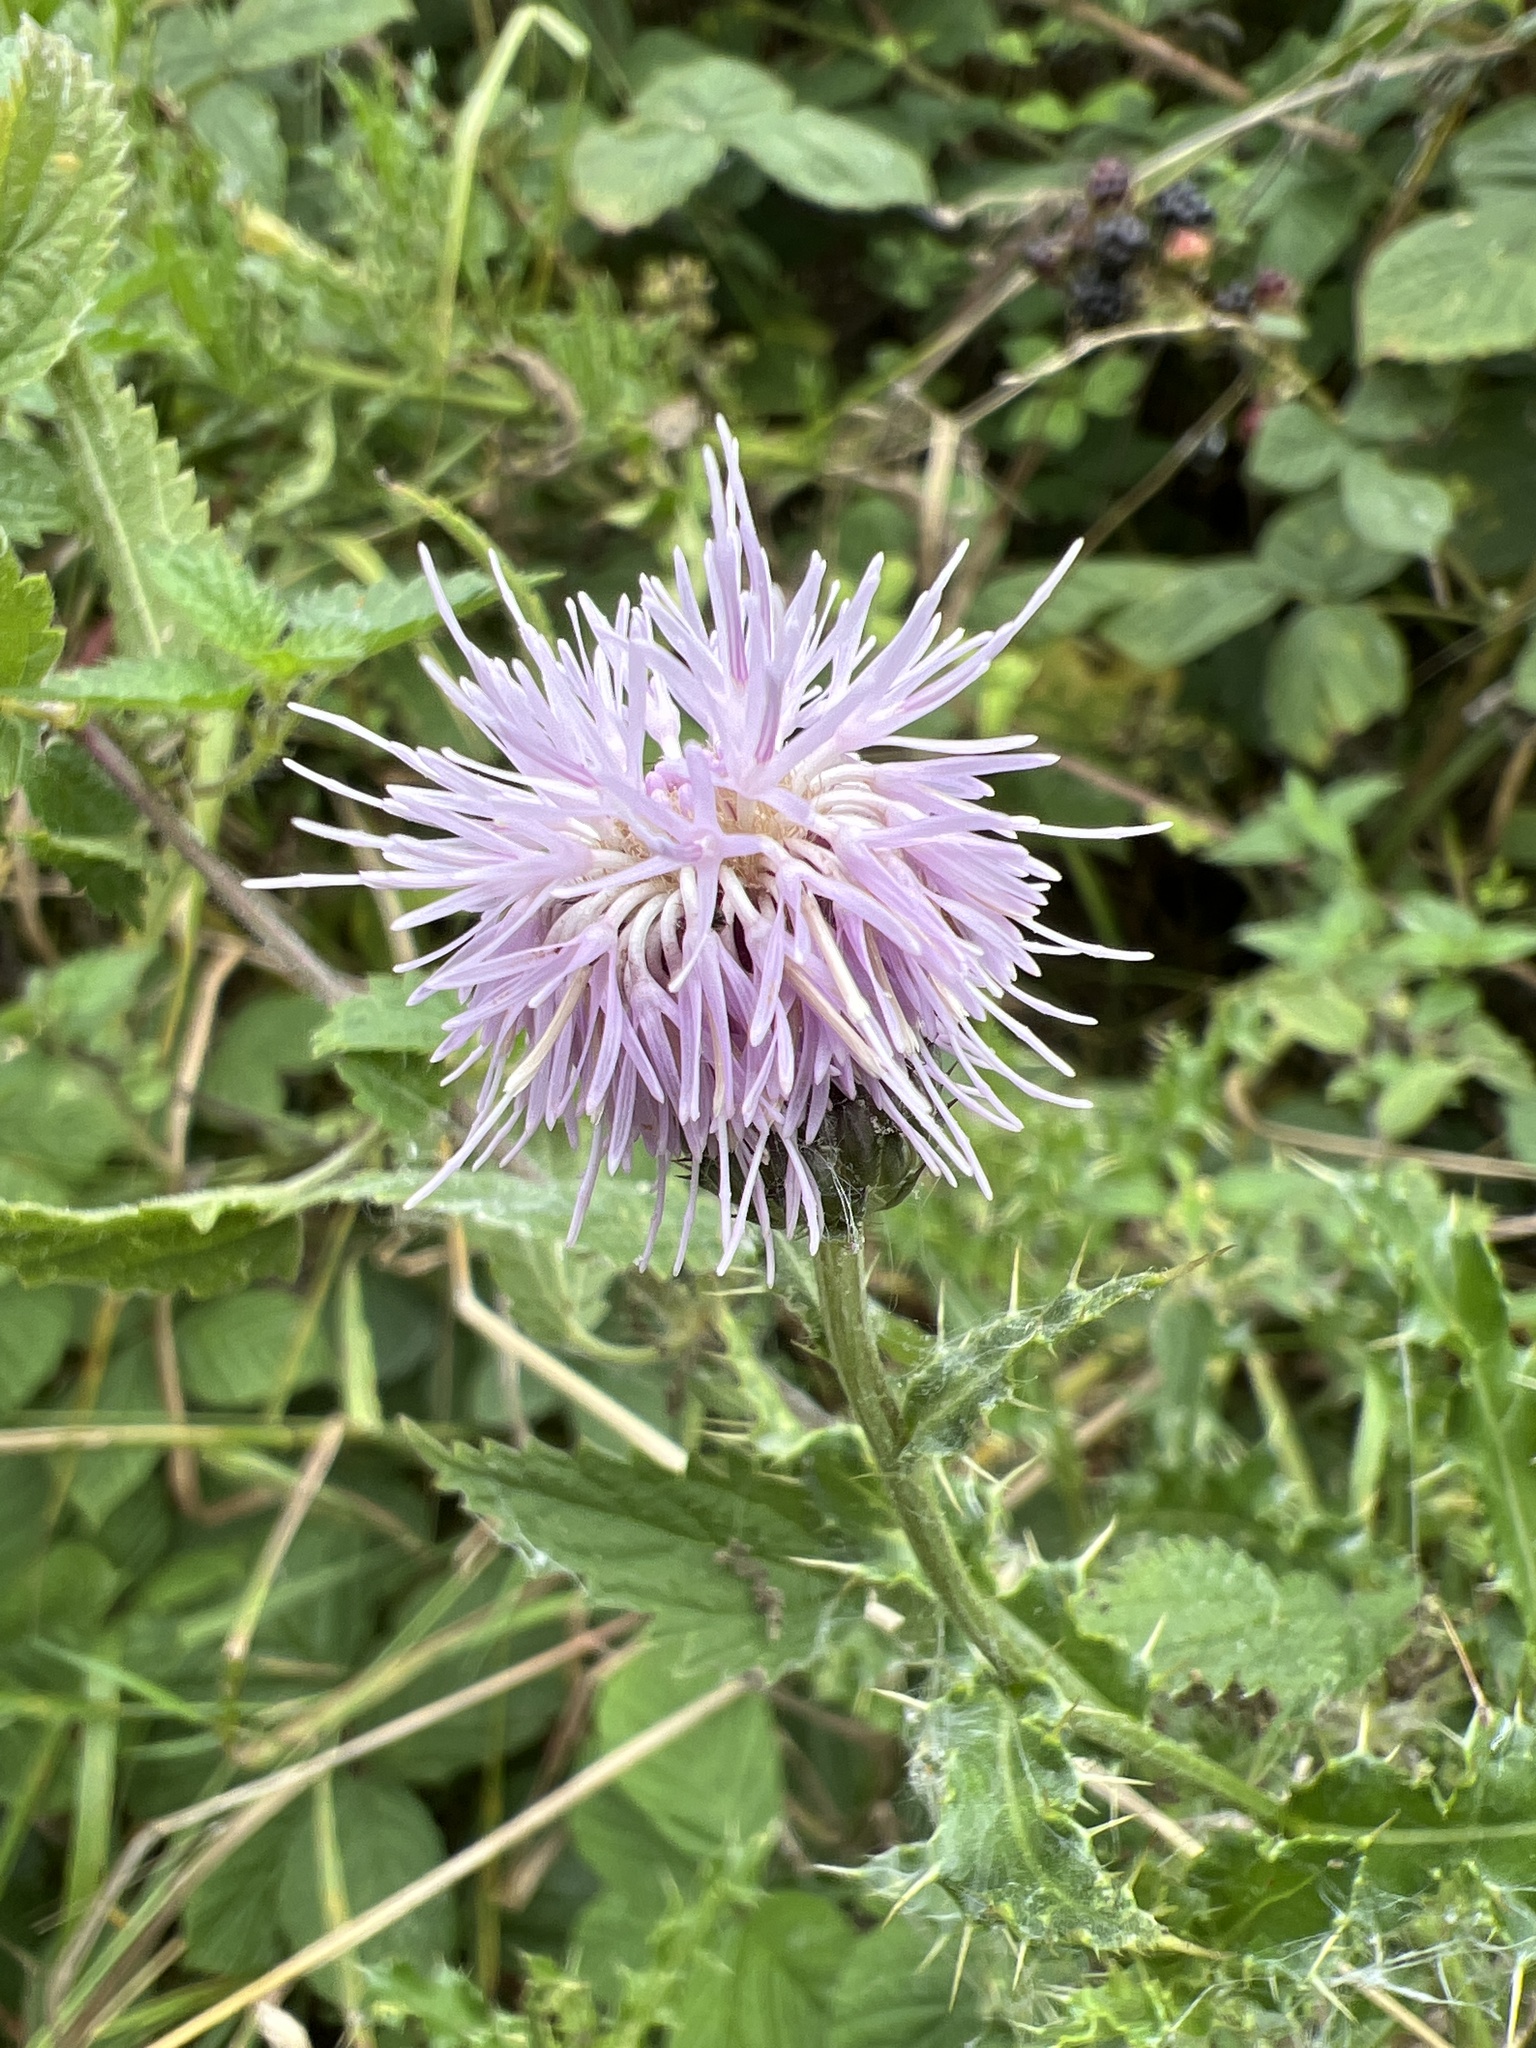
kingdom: Plantae
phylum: Tracheophyta
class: Magnoliopsida
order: Asterales
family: Asteraceae
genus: Cirsium
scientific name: Cirsium arvense
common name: Creeping thistle
